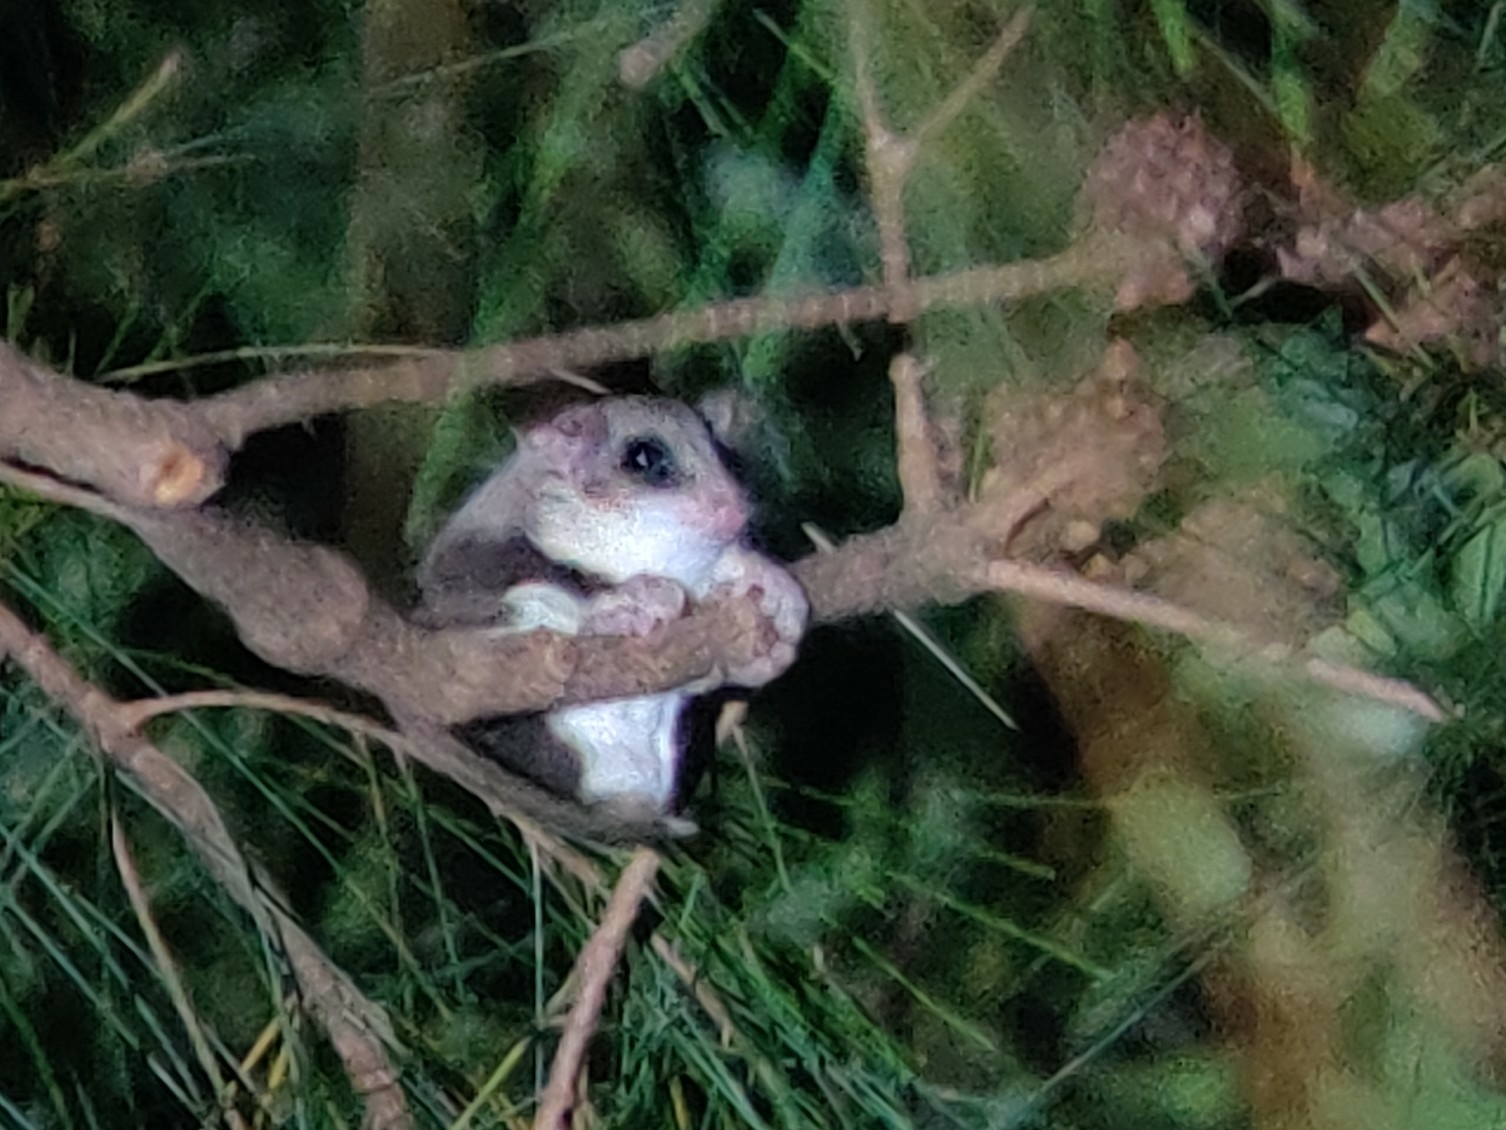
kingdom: Animalia
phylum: Chordata
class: Mammalia
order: Diprotodontia
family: Acrobatidae
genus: Acrobates
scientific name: Acrobates pygmaeus
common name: Feathertail glider
